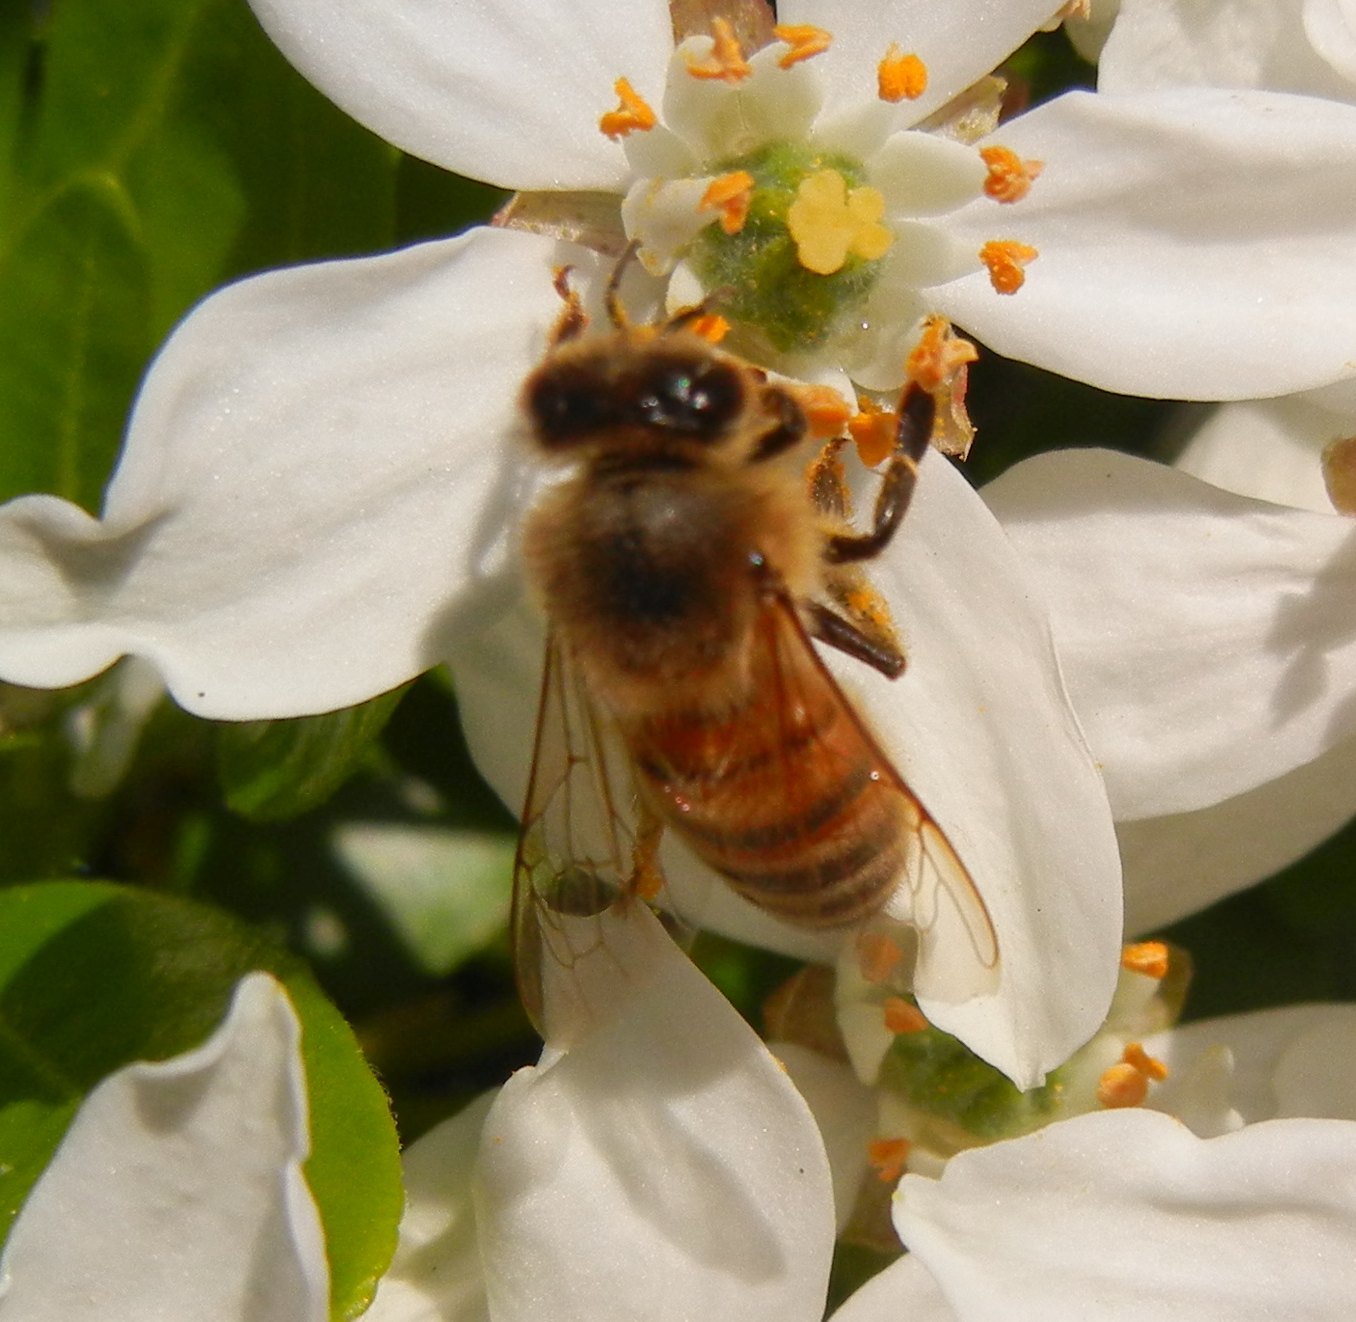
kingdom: Animalia
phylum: Arthropoda
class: Insecta
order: Hymenoptera
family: Apidae
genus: Apis
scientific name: Apis mellifera
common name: Honey bee
